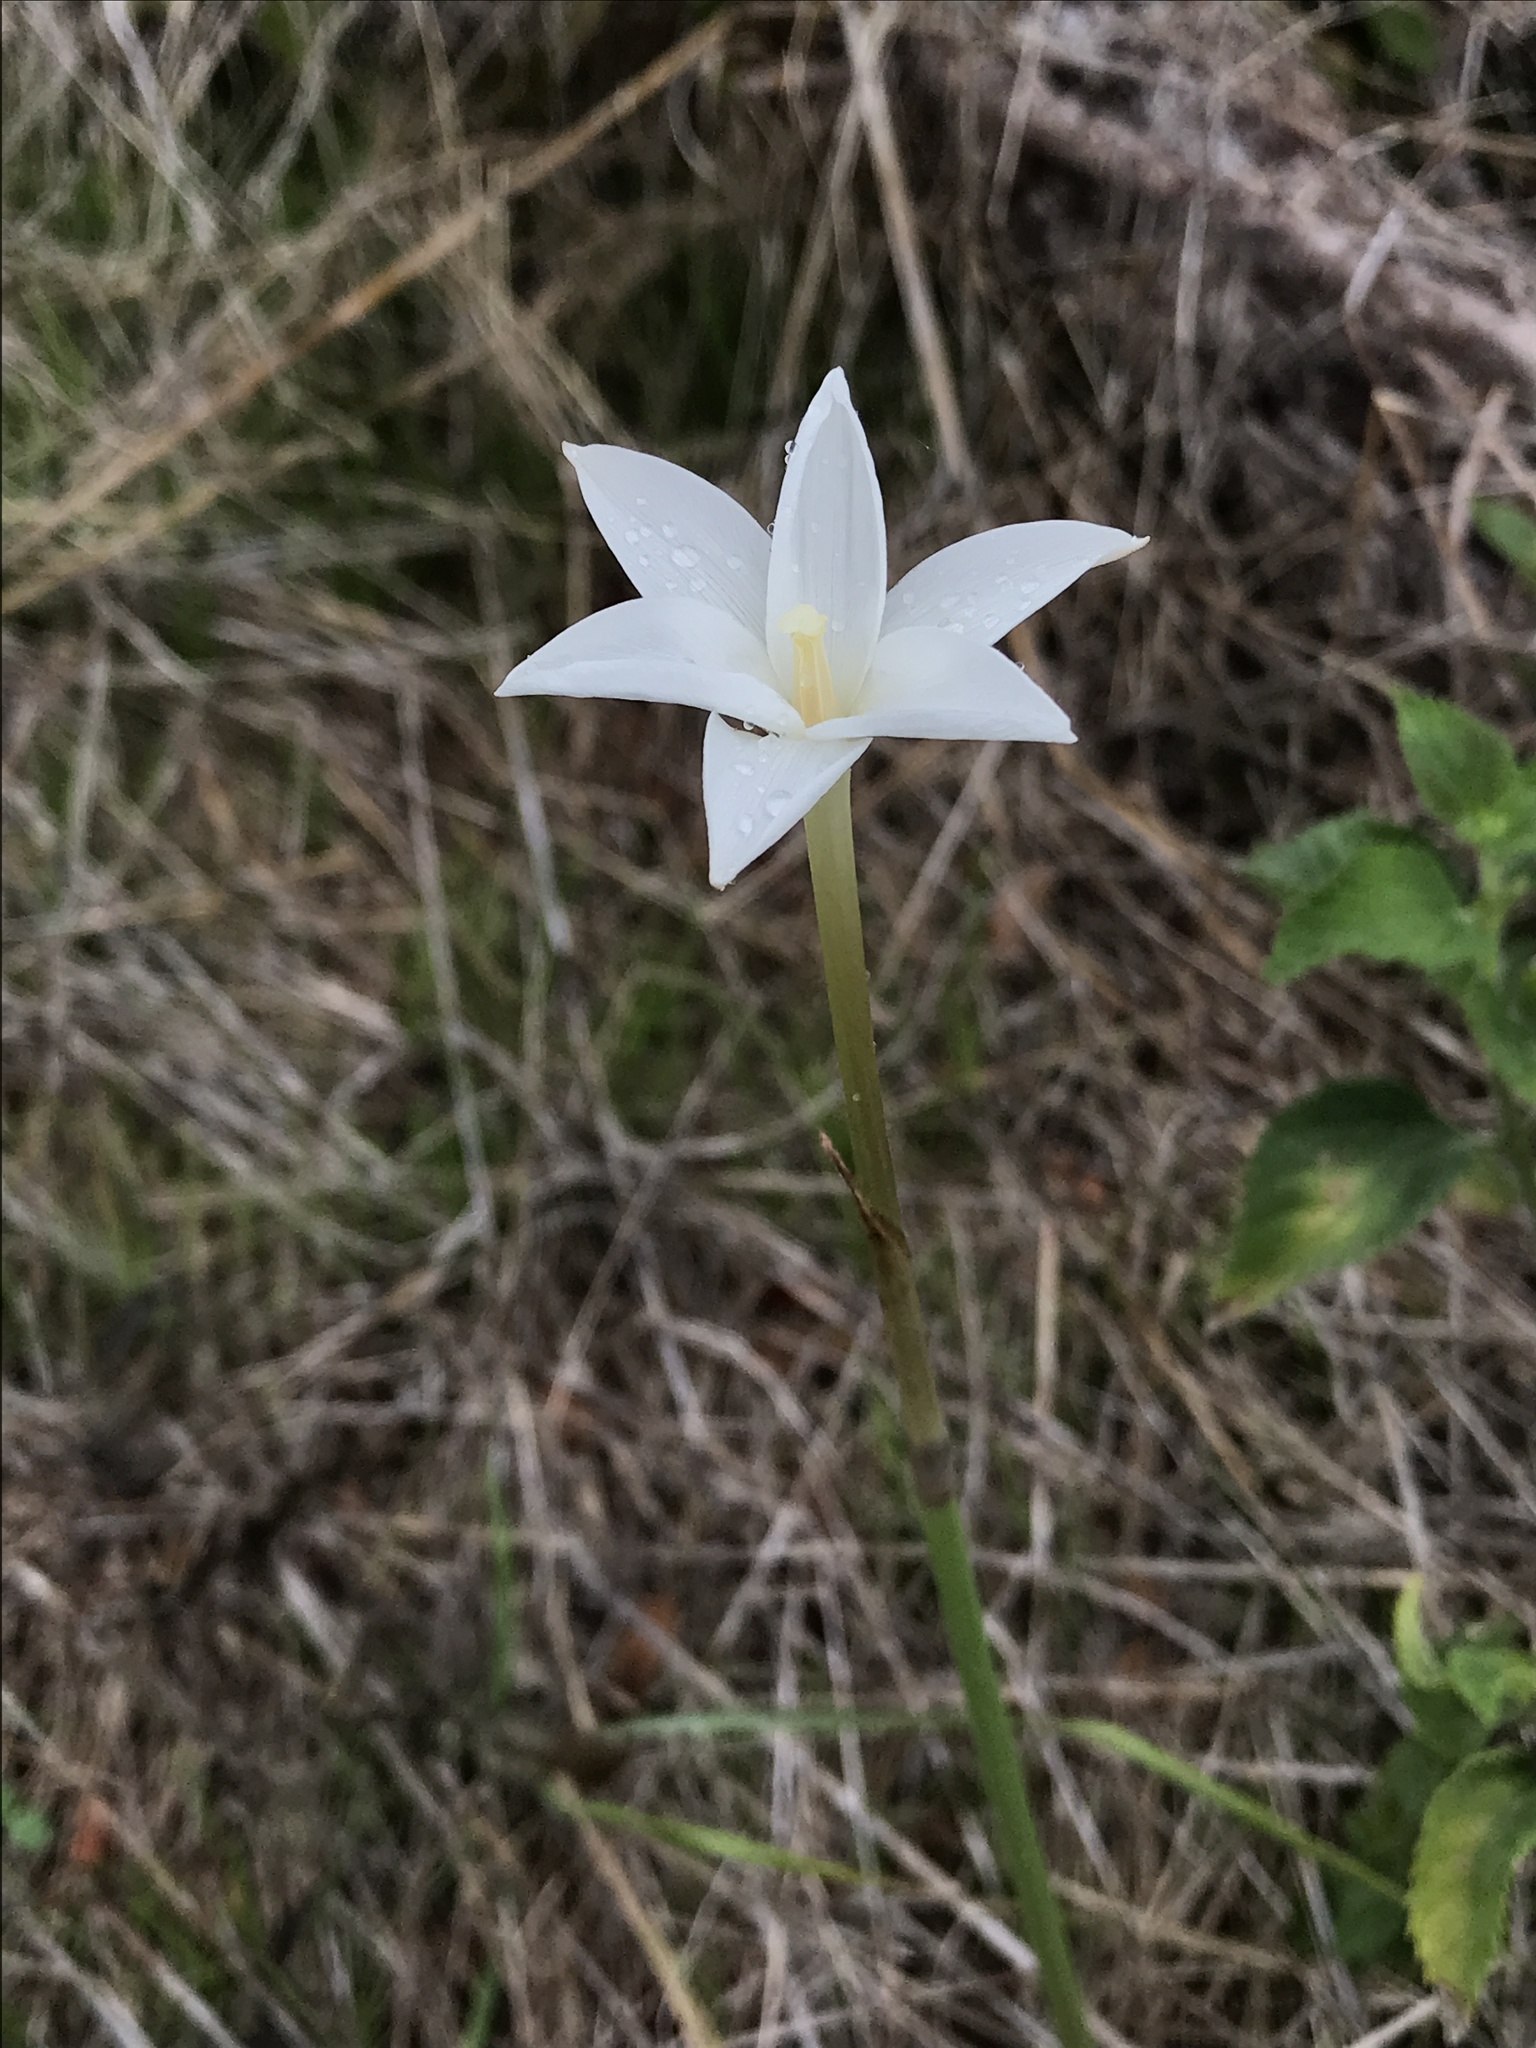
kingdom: Plantae
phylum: Tracheophyta
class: Liliopsida
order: Asparagales
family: Amaryllidaceae
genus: Zephyranthes
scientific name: Zephyranthes chlorosolen
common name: Evening rain-lily
